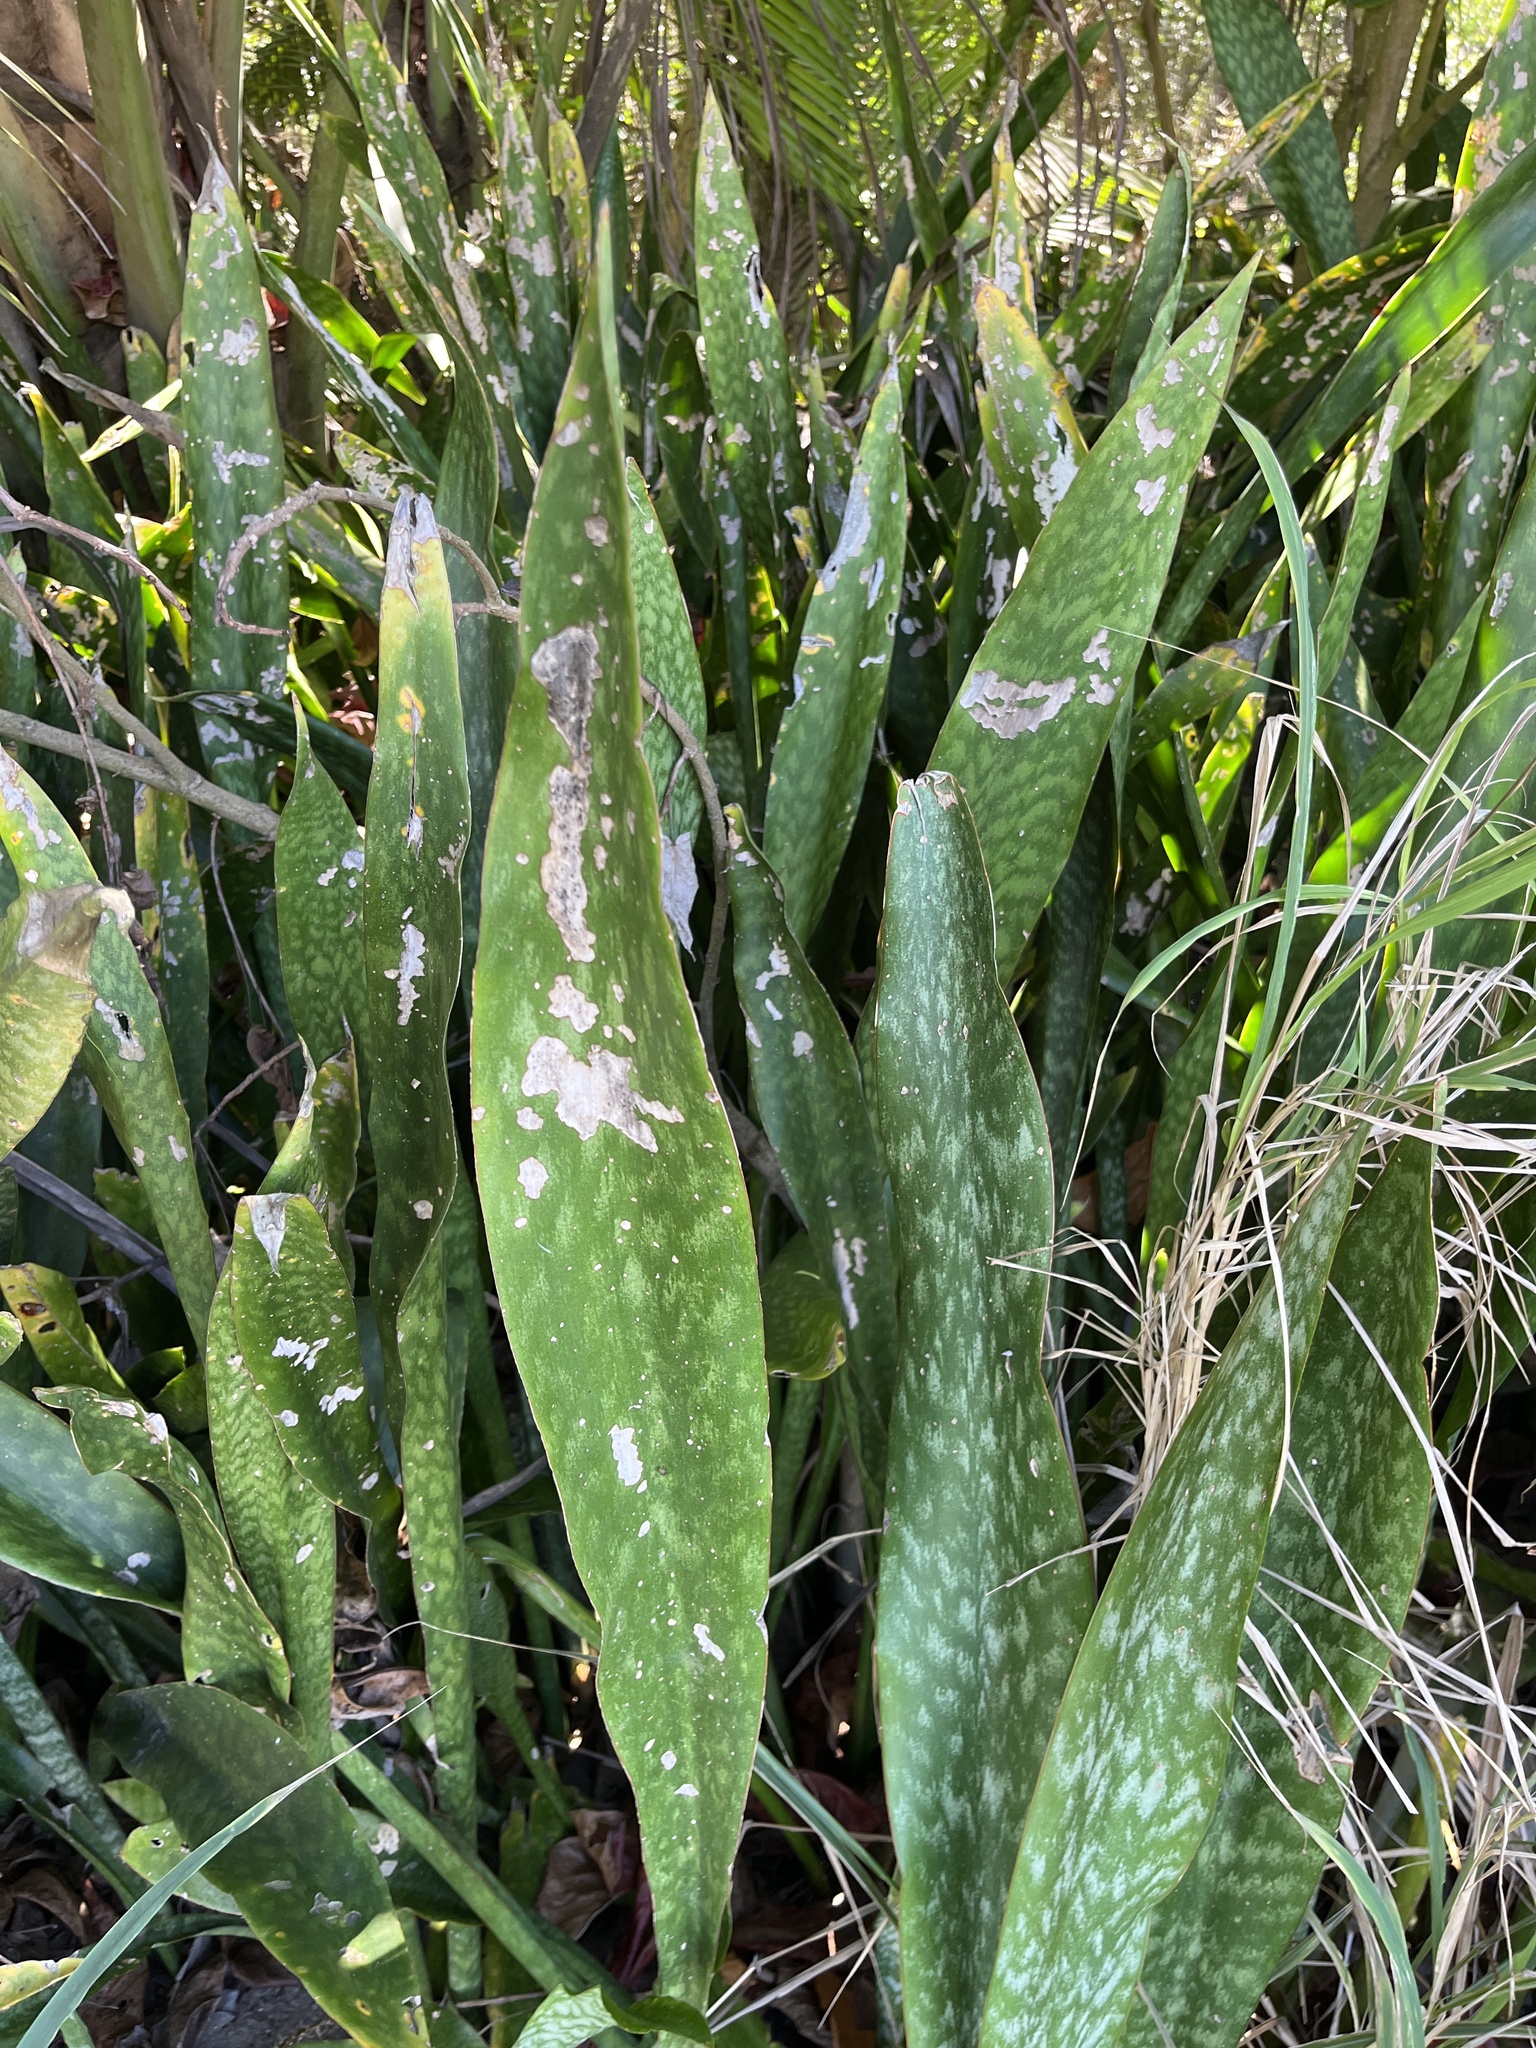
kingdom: Plantae
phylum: Tracheophyta
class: Liliopsida
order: Asparagales
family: Asparagaceae
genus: Dracaena
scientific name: Dracaena hyacinthoides
